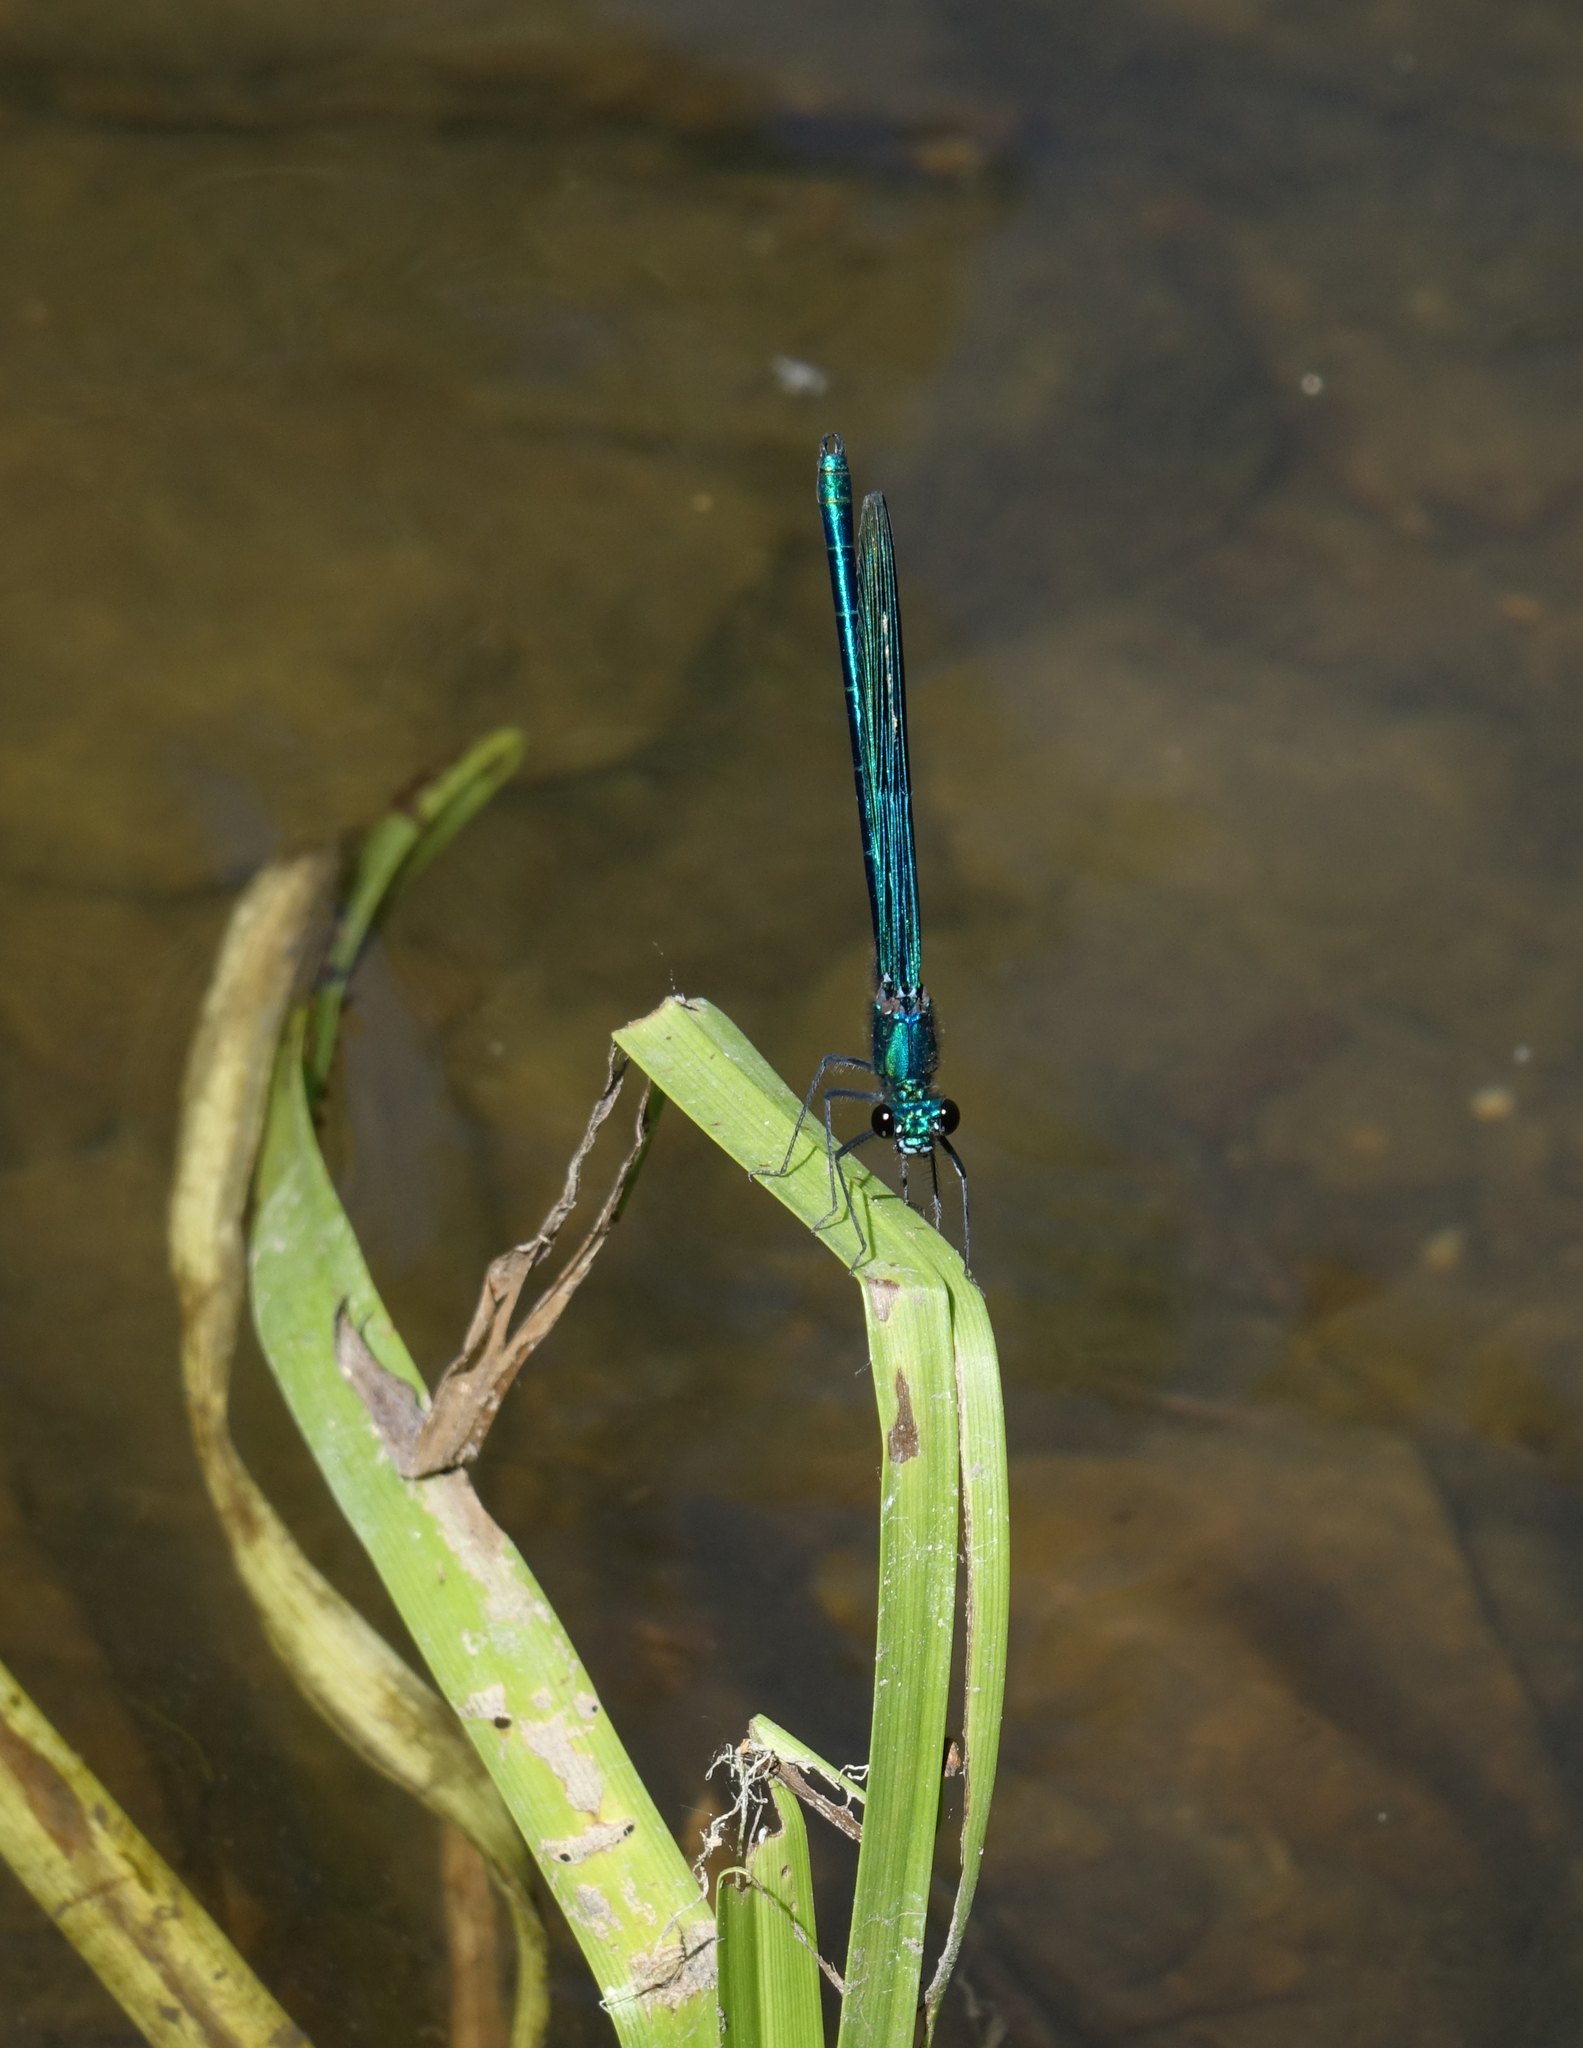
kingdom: Animalia
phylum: Arthropoda
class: Insecta
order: Odonata
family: Calopterygidae
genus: Calopteryx
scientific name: Calopteryx splendens
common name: Banded demoiselle
